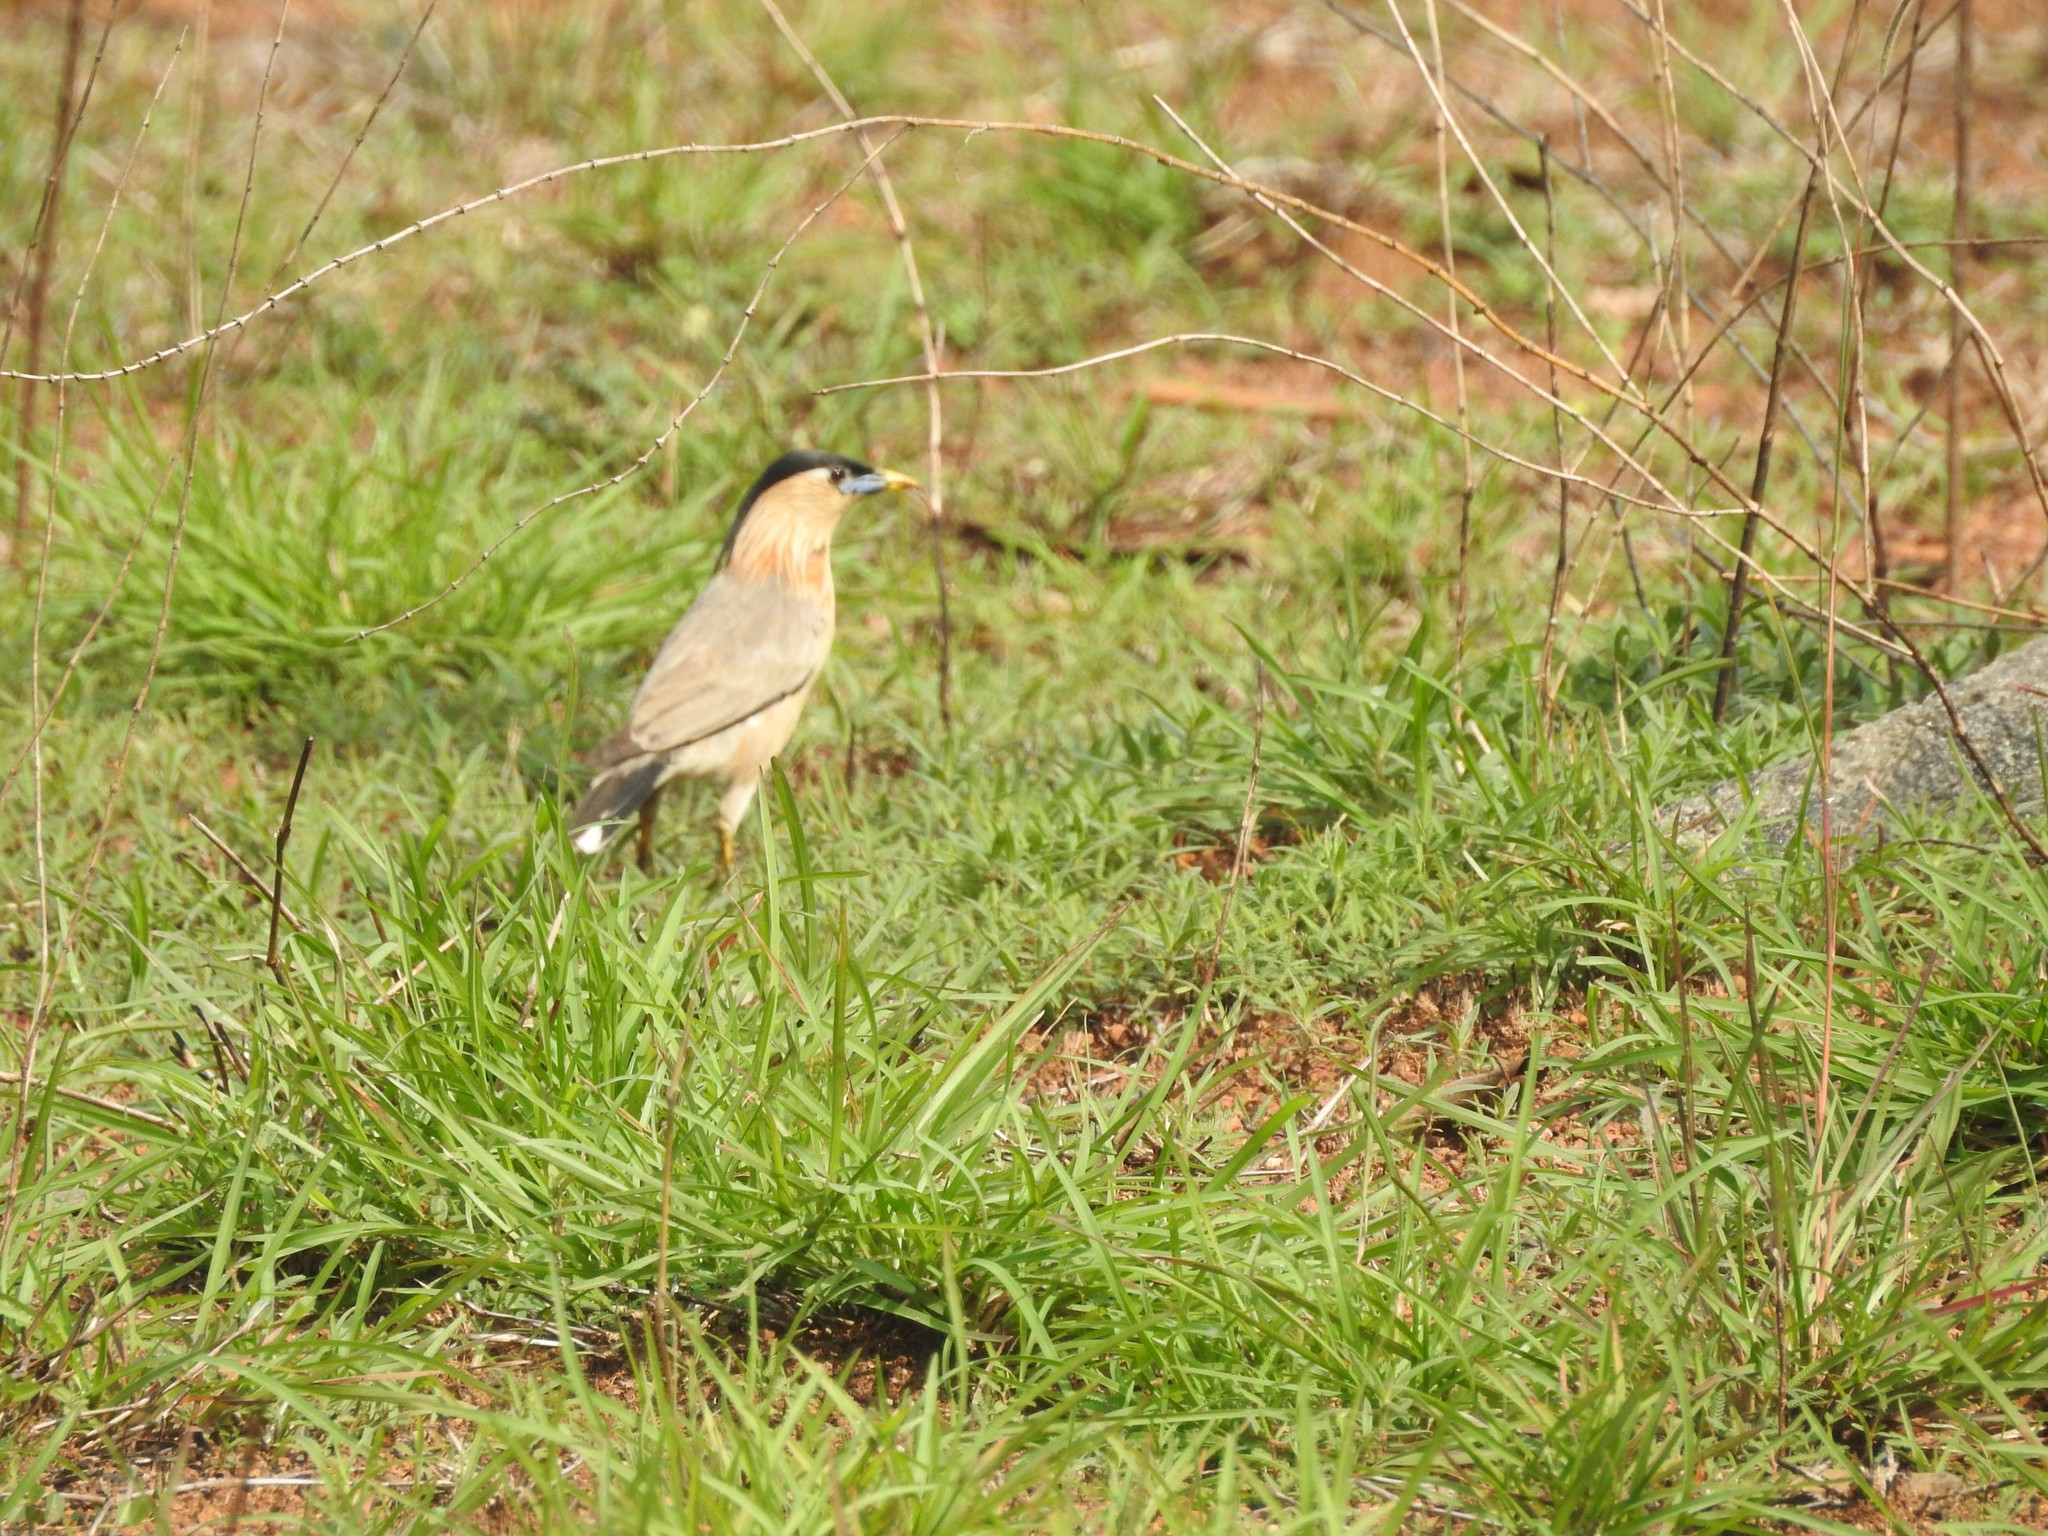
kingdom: Animalia
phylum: Chordata
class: Aves
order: Passeriformes
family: Sturnidae
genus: Sturnia
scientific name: Sturnia pagodarum
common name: Brahminy starling
